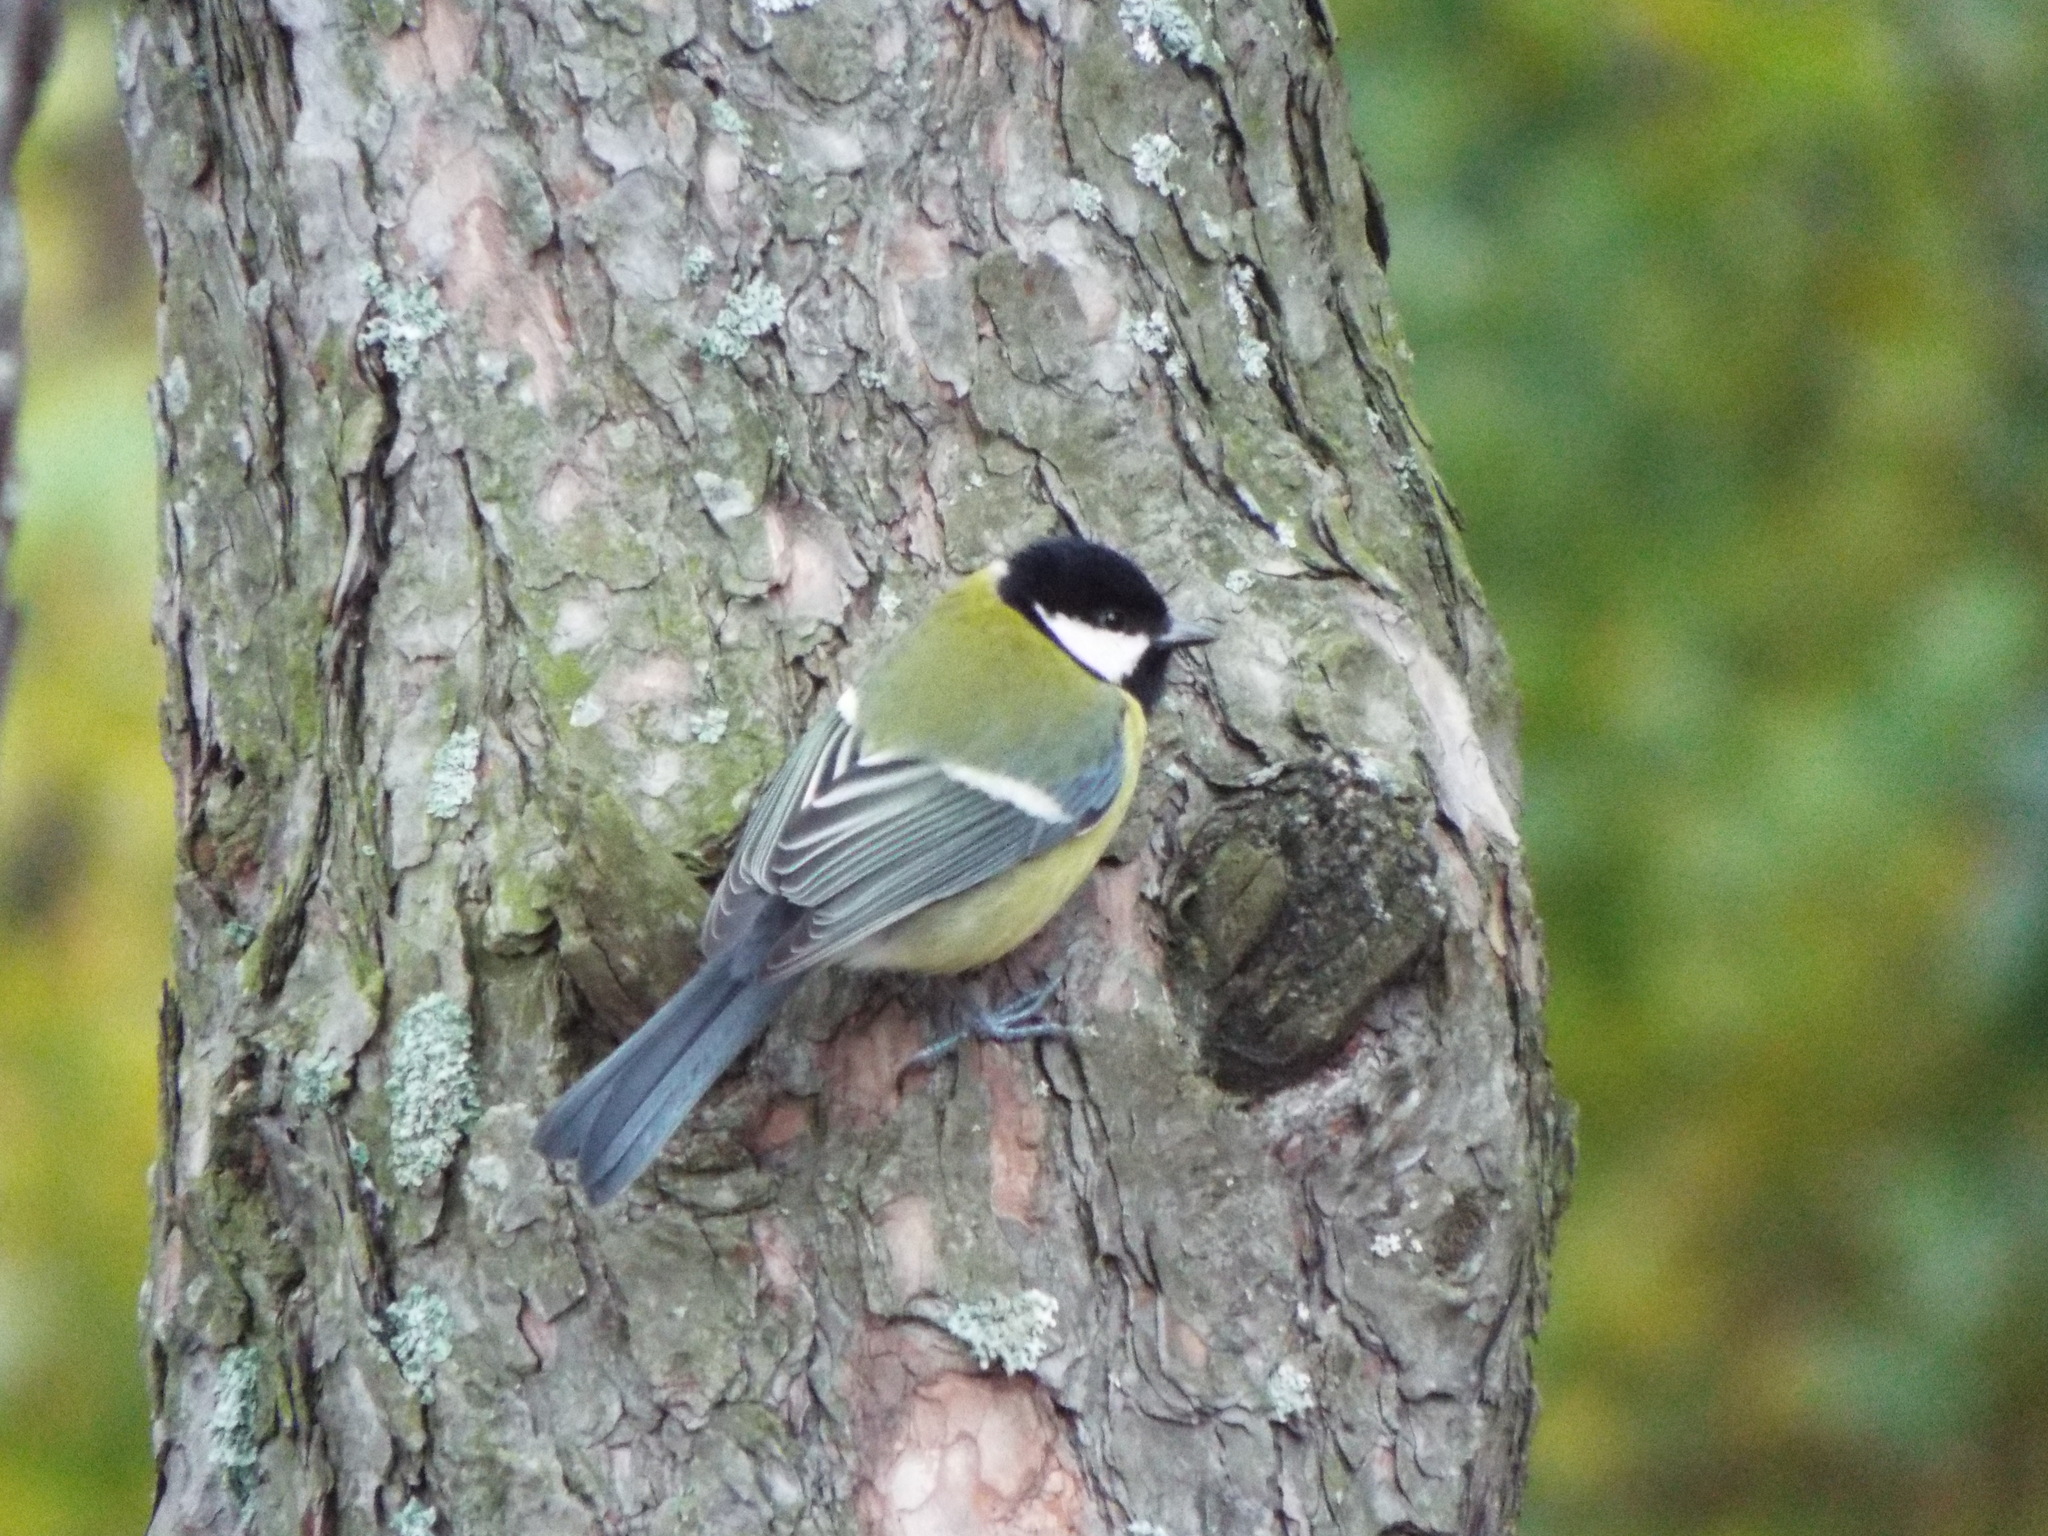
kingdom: Animalia
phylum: Chordata
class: Aves
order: Passeriformes
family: Paridae
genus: Parus
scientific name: Parus major
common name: Great tit
